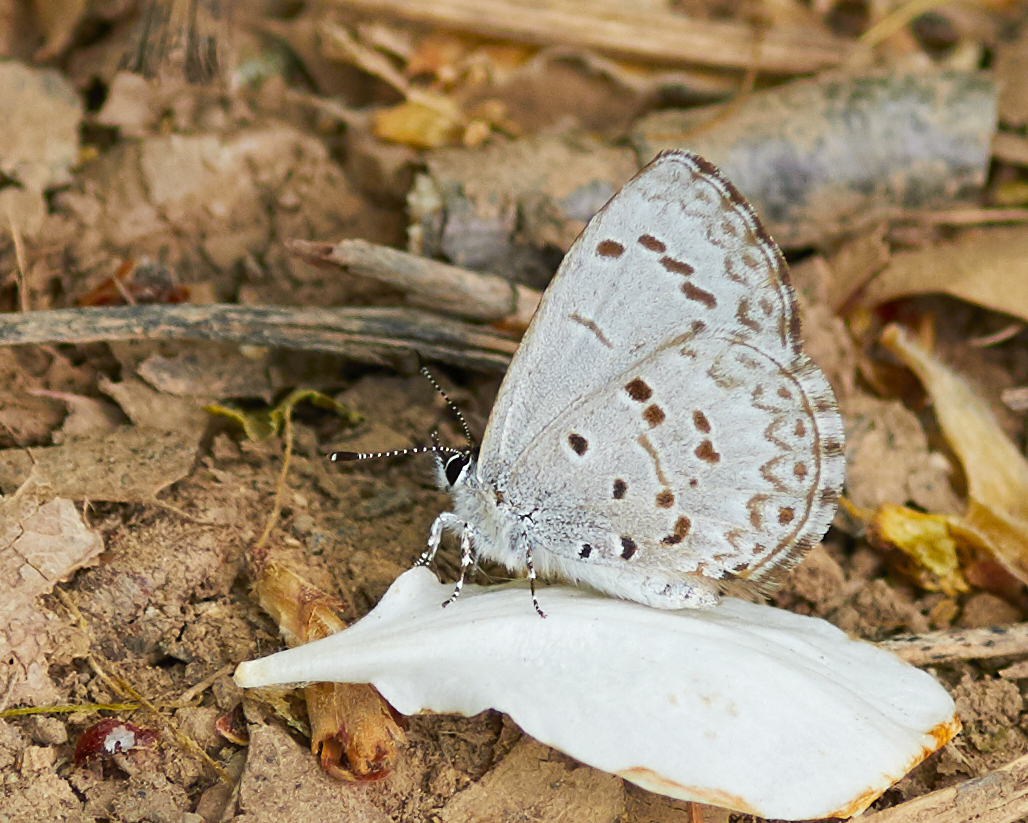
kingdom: Animalia
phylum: Arthropoda
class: Insecta
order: Lepidoptera
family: Lycaenidae
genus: Celastrina
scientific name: Celastrina lucia
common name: Lucia azure
